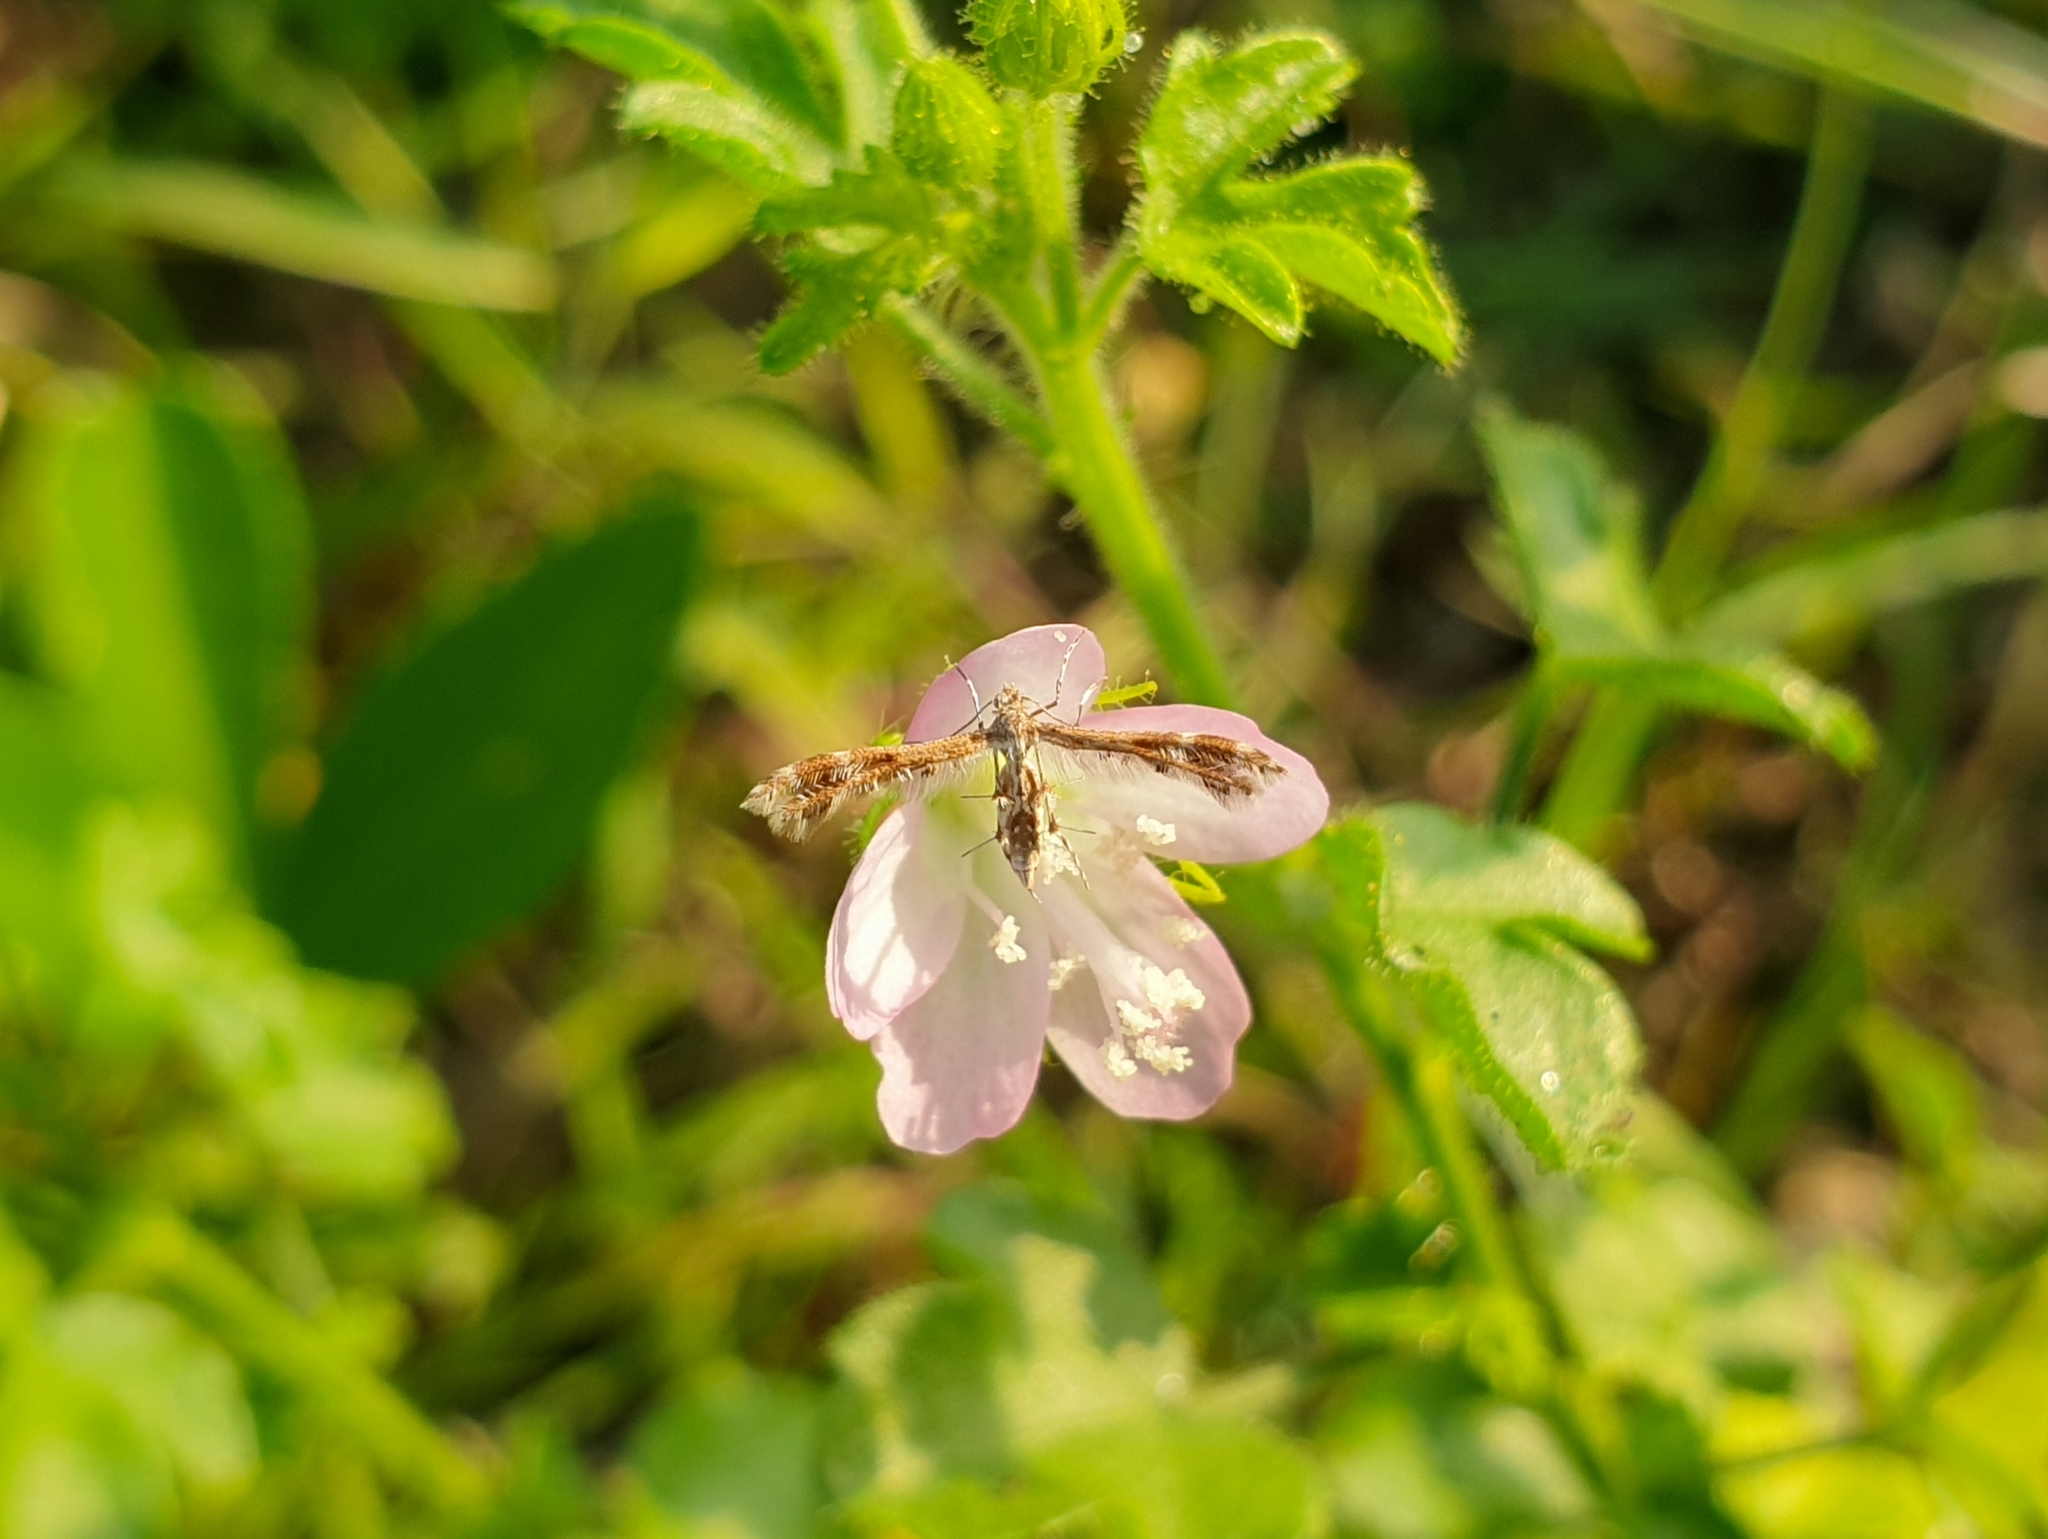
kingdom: Animalia
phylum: Arthropoda
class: Insecta
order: Lepidoptera
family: Pterophoridae
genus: Sphenarches
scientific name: Sphenarches anisodactylus
